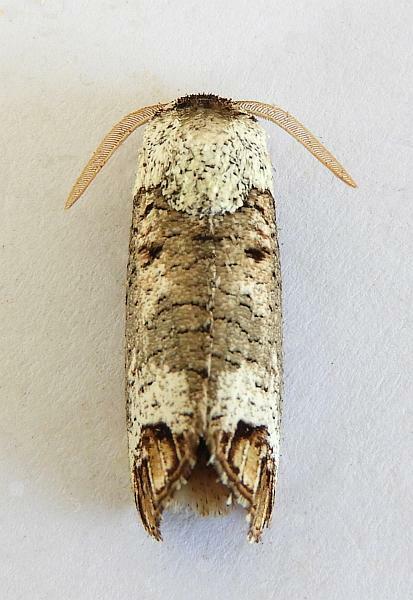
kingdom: Animalia
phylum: Arthropoda
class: Insecta
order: Lepidoptera
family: Cossidae
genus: Cossula
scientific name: Cossula magnifica
